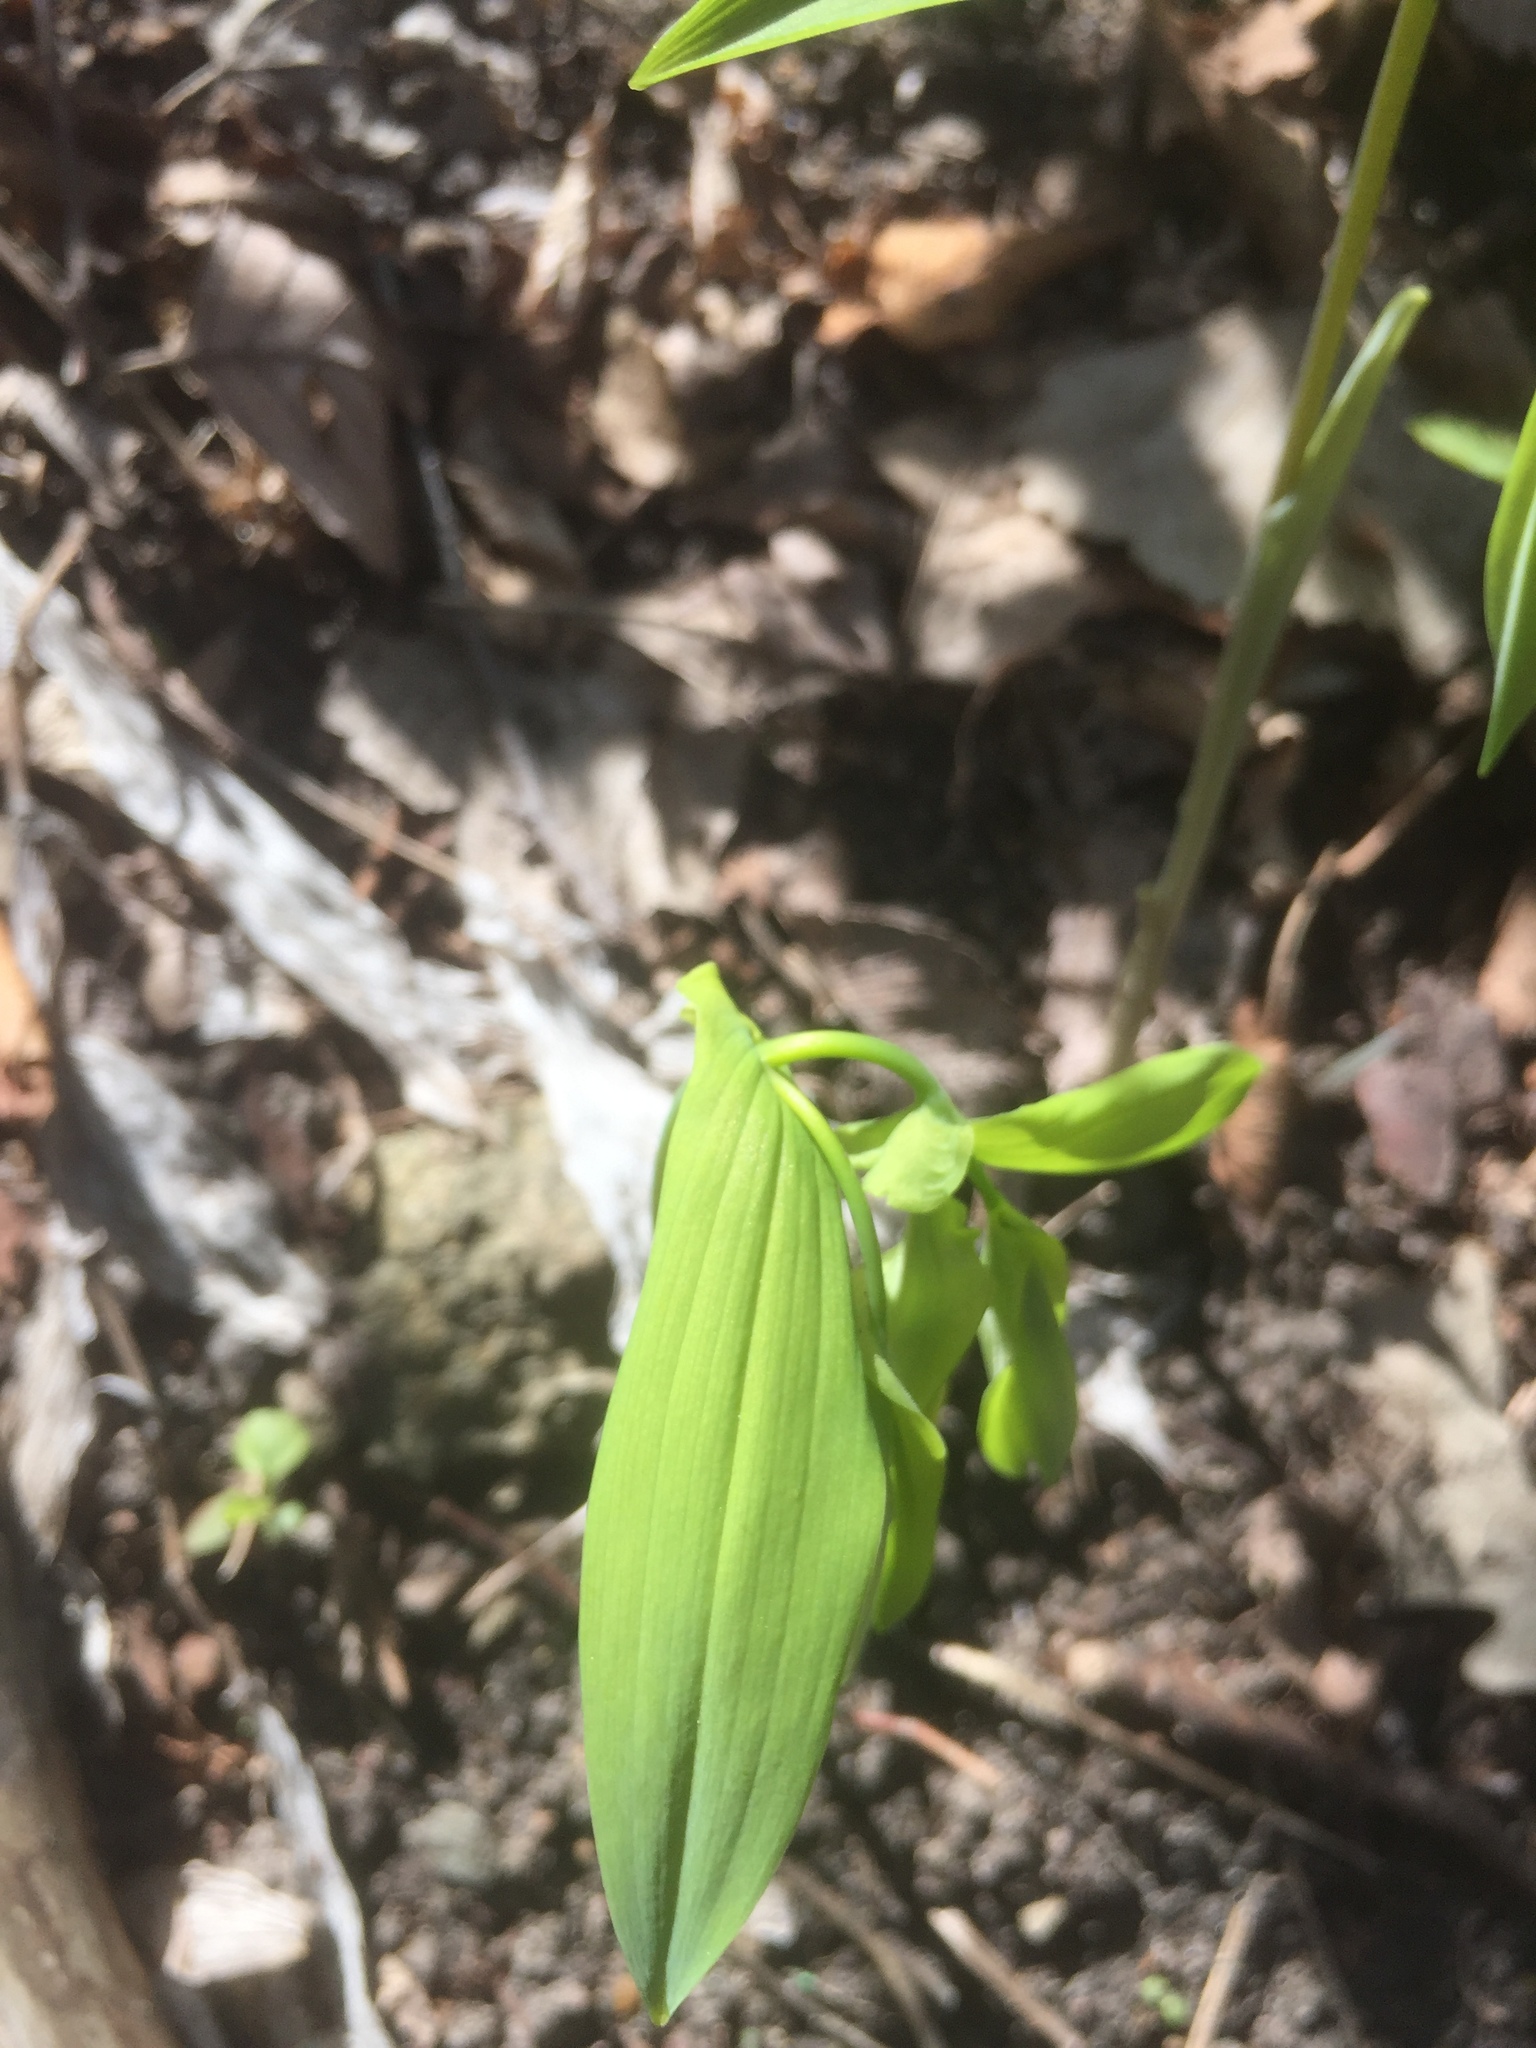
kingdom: Plantae
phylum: Tracheophyta
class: Liliopsida
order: Liliales
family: Colchicaceae
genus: Uvularia
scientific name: Uvularia grandiflora
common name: Bellwort
